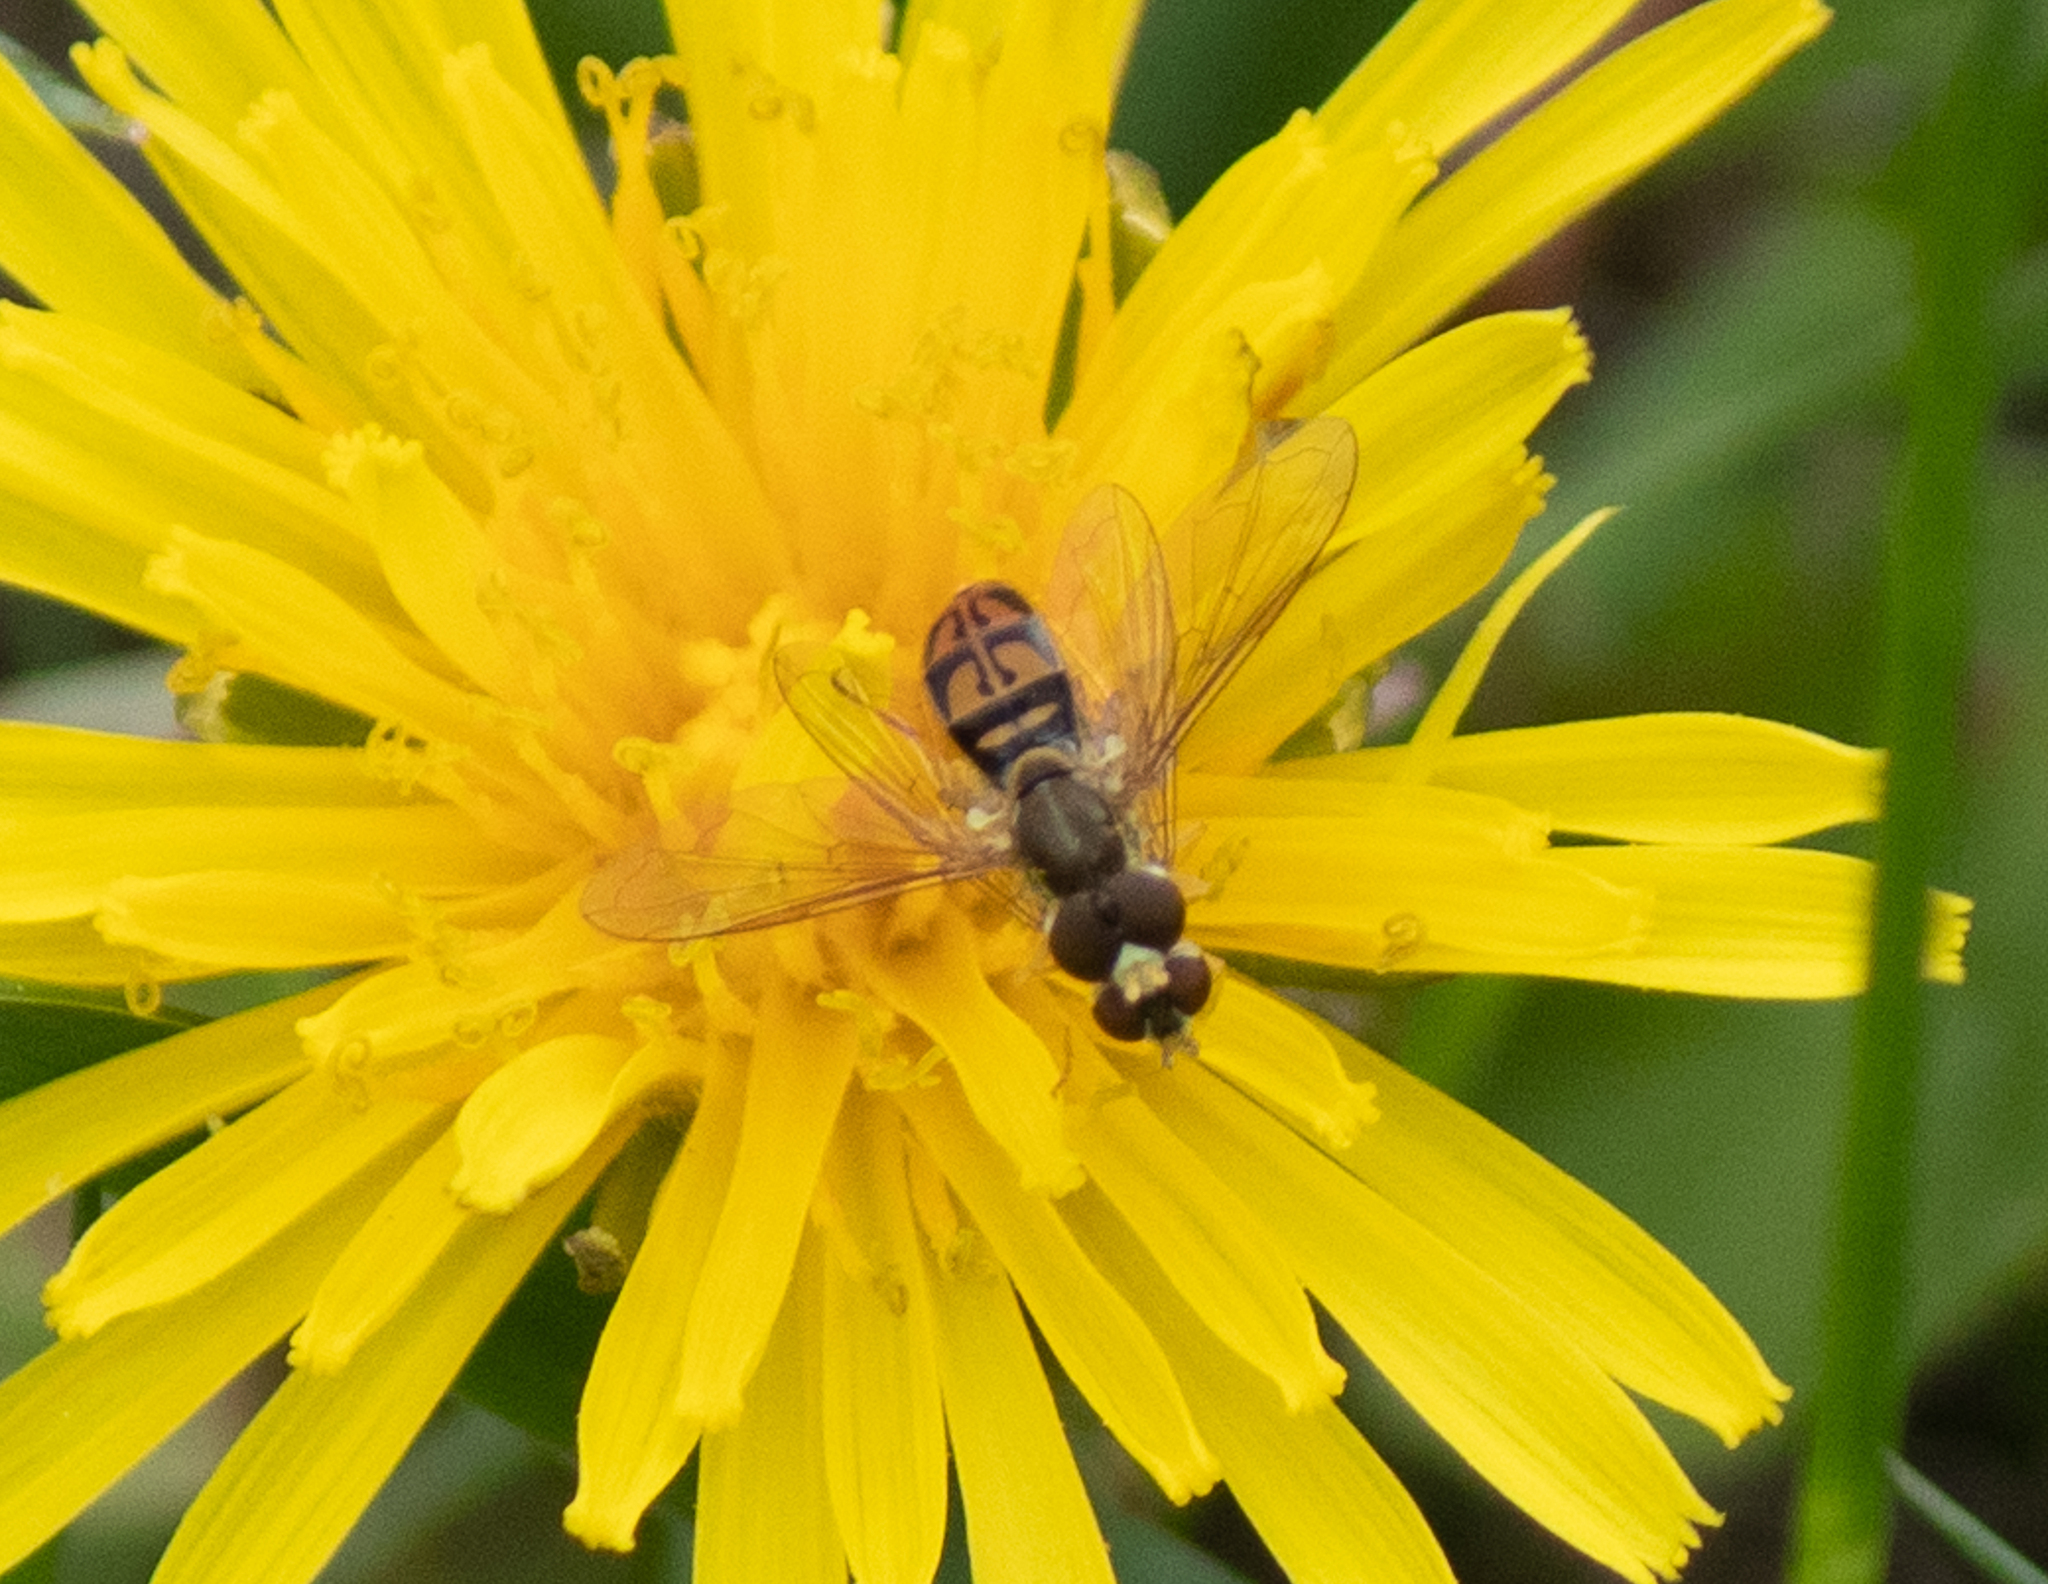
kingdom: Animalia
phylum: Arthropoda
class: Insecta
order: Diptera
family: Syrphidae
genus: Toxomerus
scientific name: Toxomerus marginatus
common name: Syrphid fly
